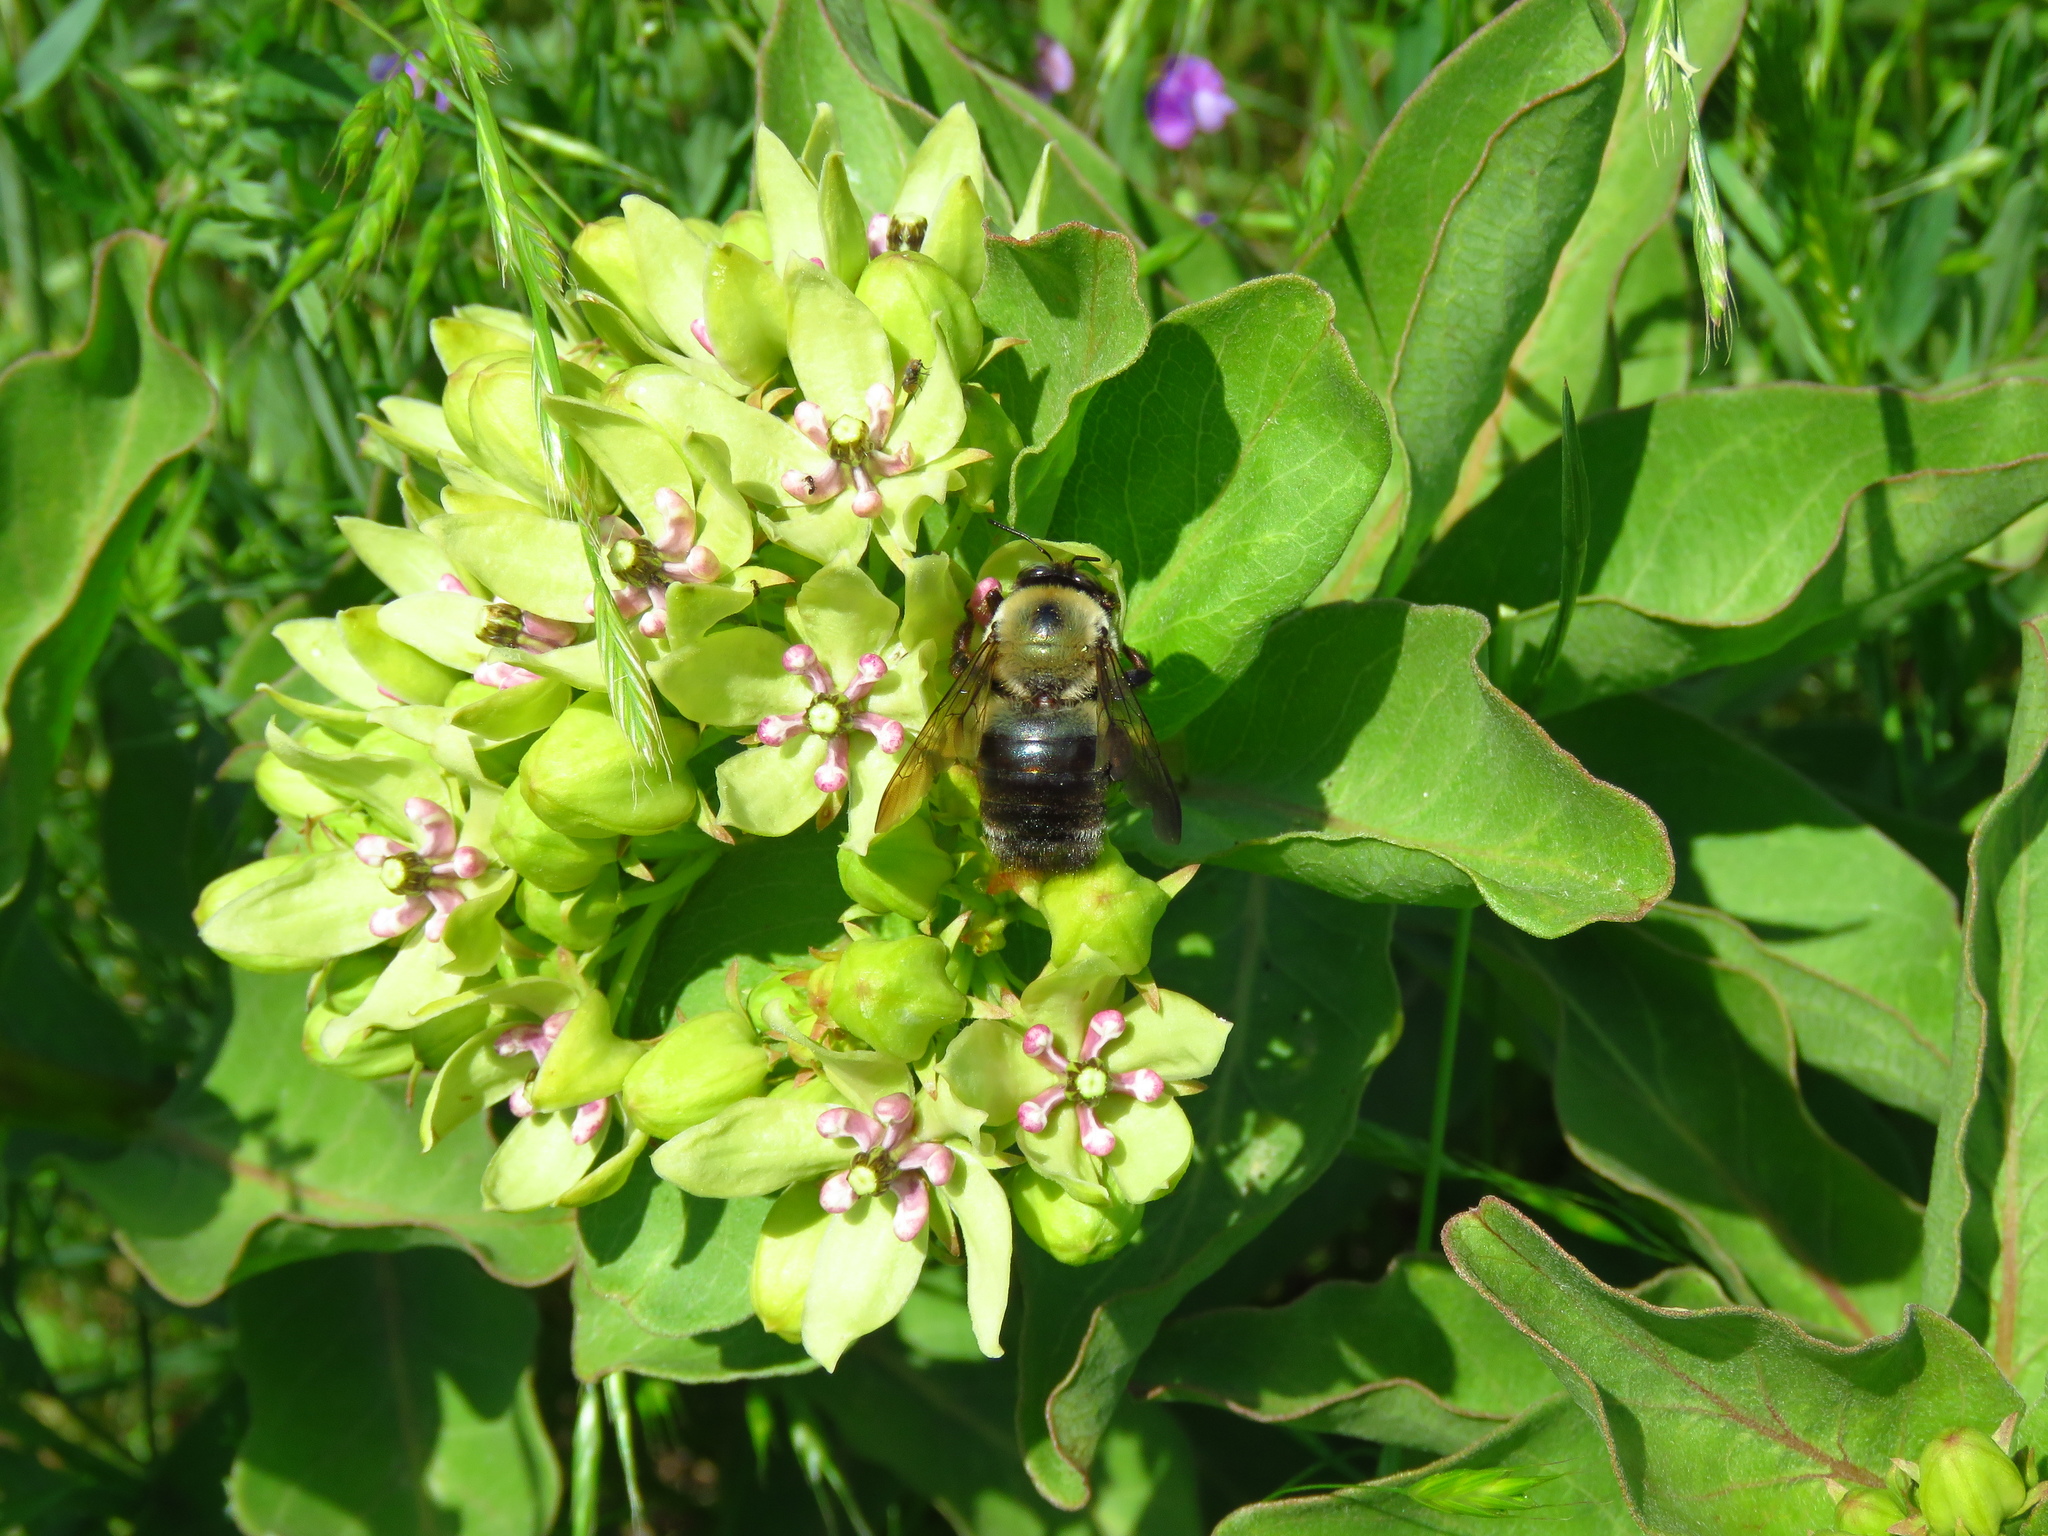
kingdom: Plantae
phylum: Tracheophyta
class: Magnoliopsida
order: Gentianales
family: Apocynaceae
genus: Asclepias
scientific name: Asclepias viridis
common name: Antelope-horns
